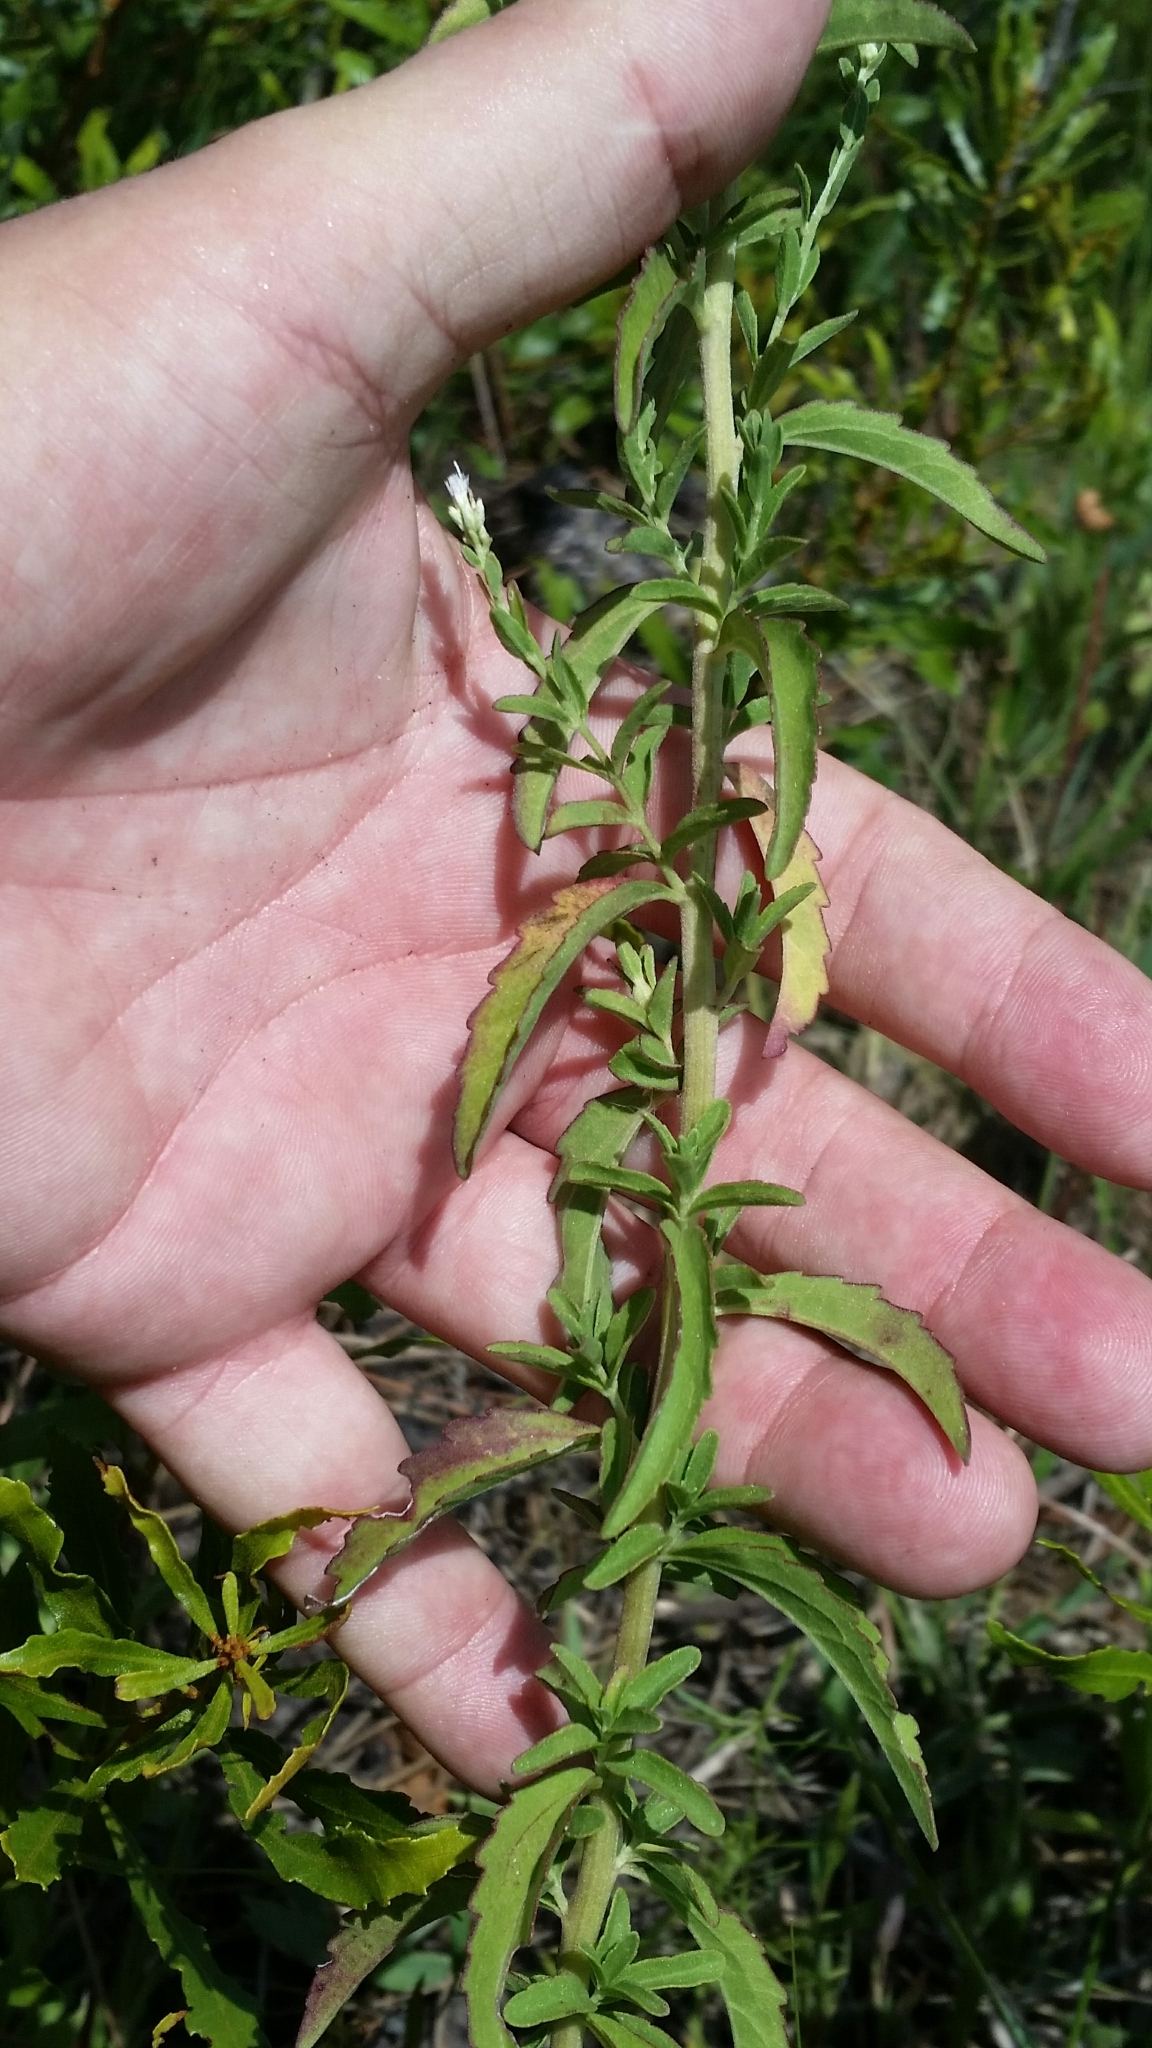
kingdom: Plantae
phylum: Tracheophyta
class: Magnoliopsida
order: Asterales
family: Asteraceae
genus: Eupatorium
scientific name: Eupatorium mohrii
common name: Mohr's thoroughwort
